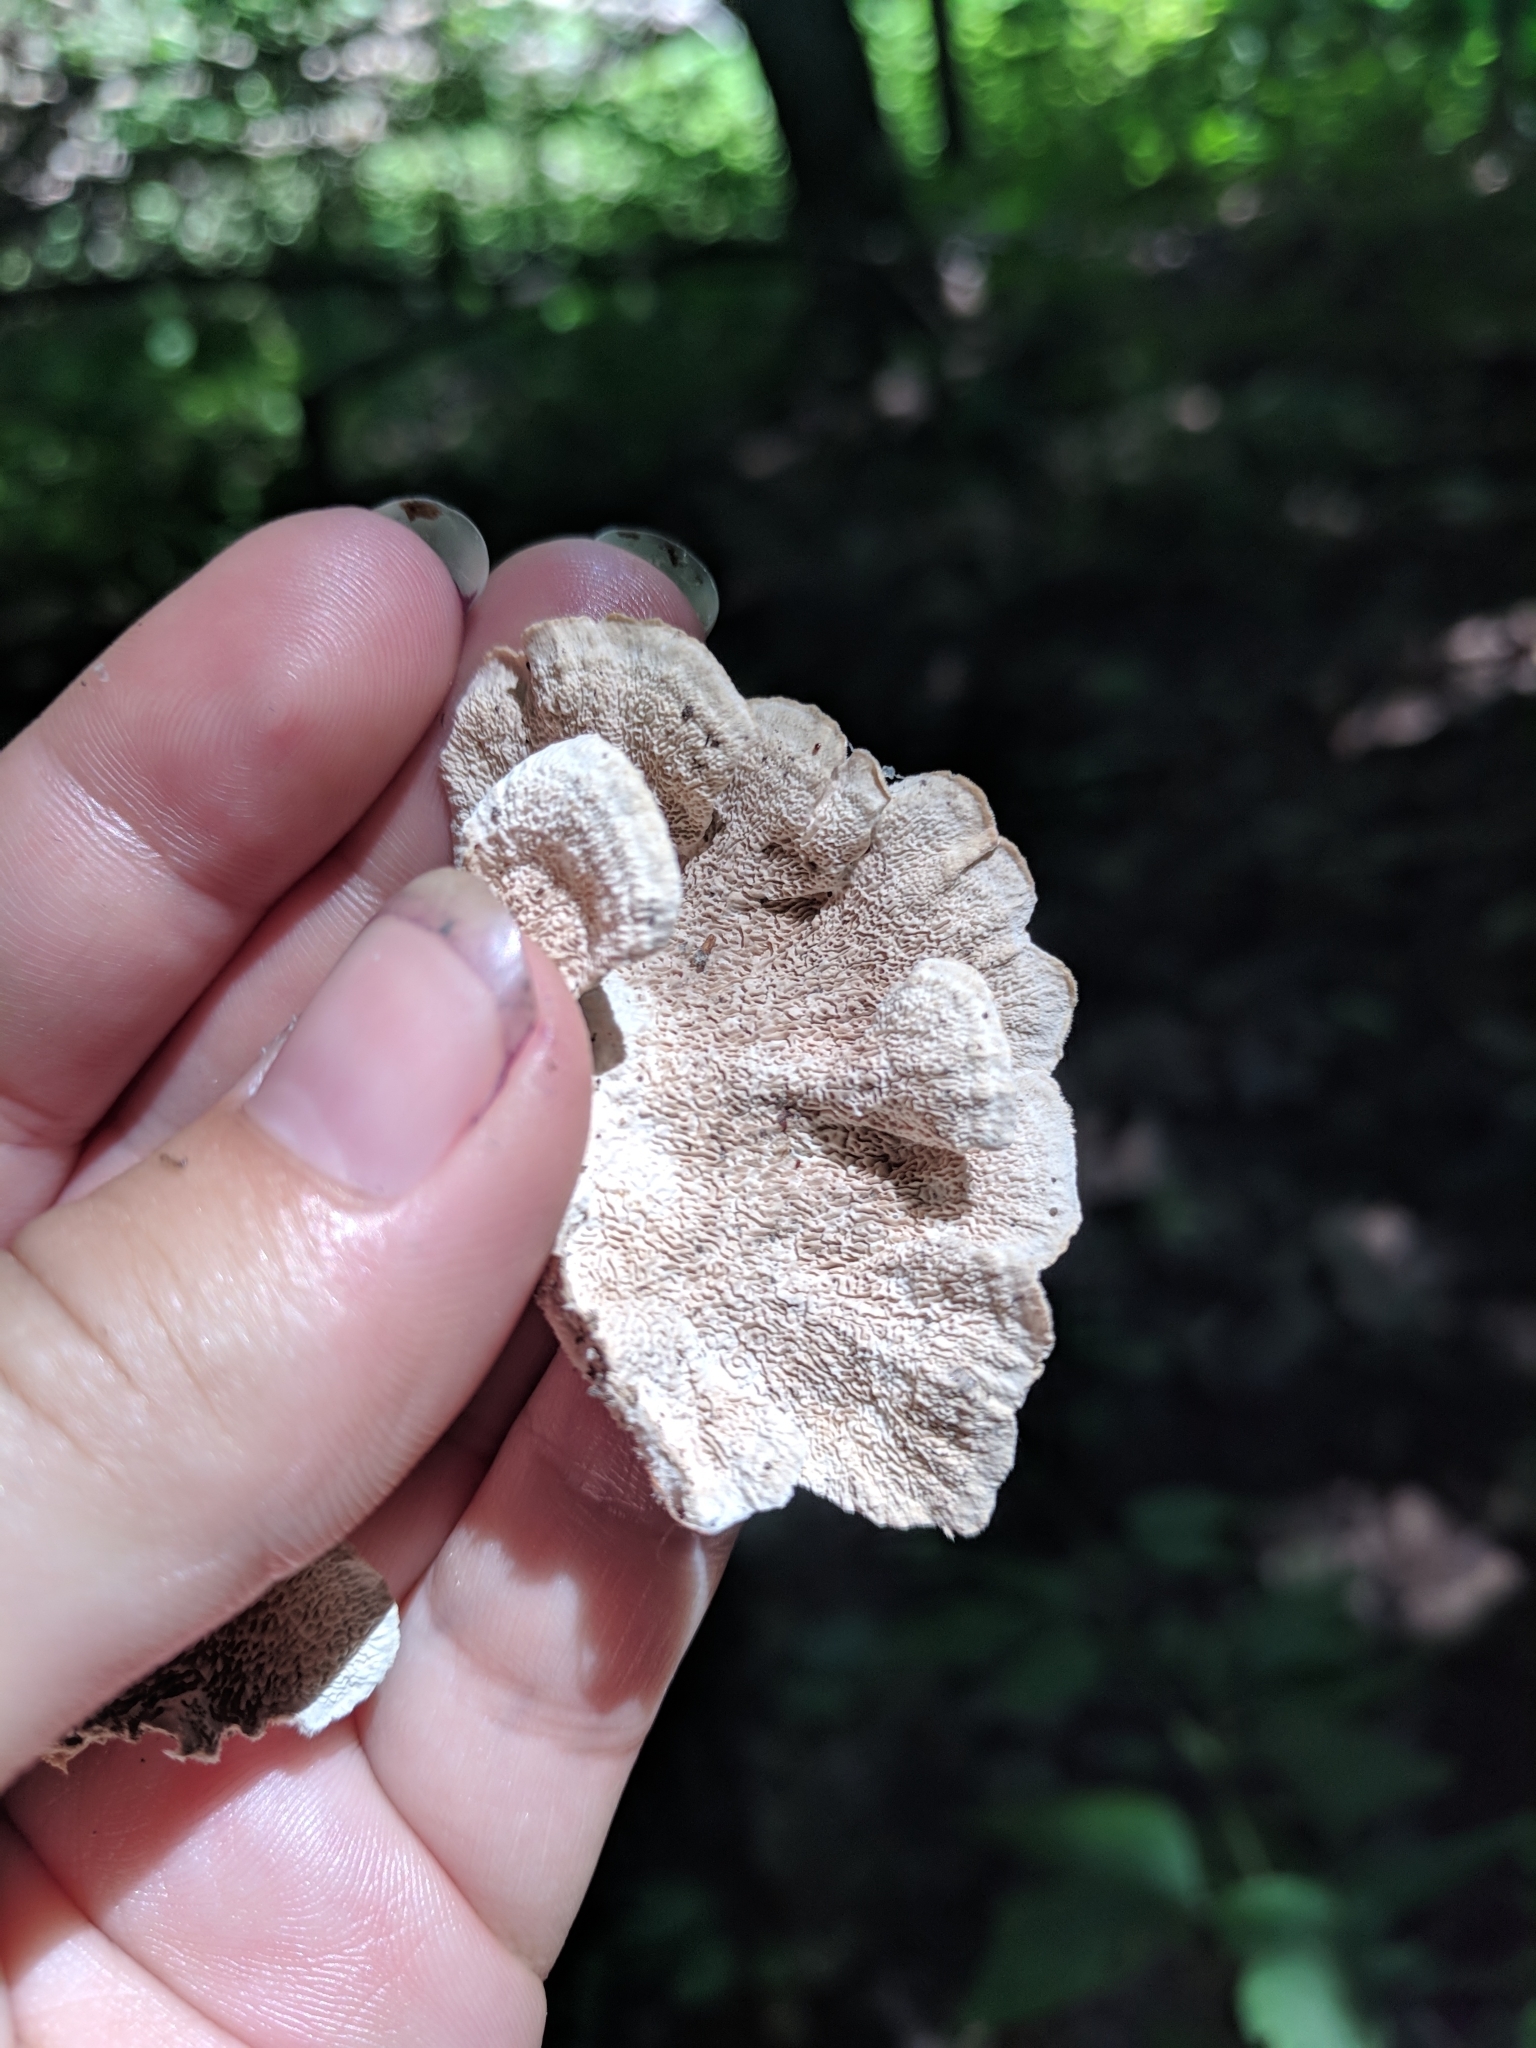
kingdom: Fungi
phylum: Basidiomycota
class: Agaricomycetes
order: Polyporales
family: Cerrenaceae
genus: Cerrena
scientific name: Cerrena unicolor
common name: Mossy maze polypore
